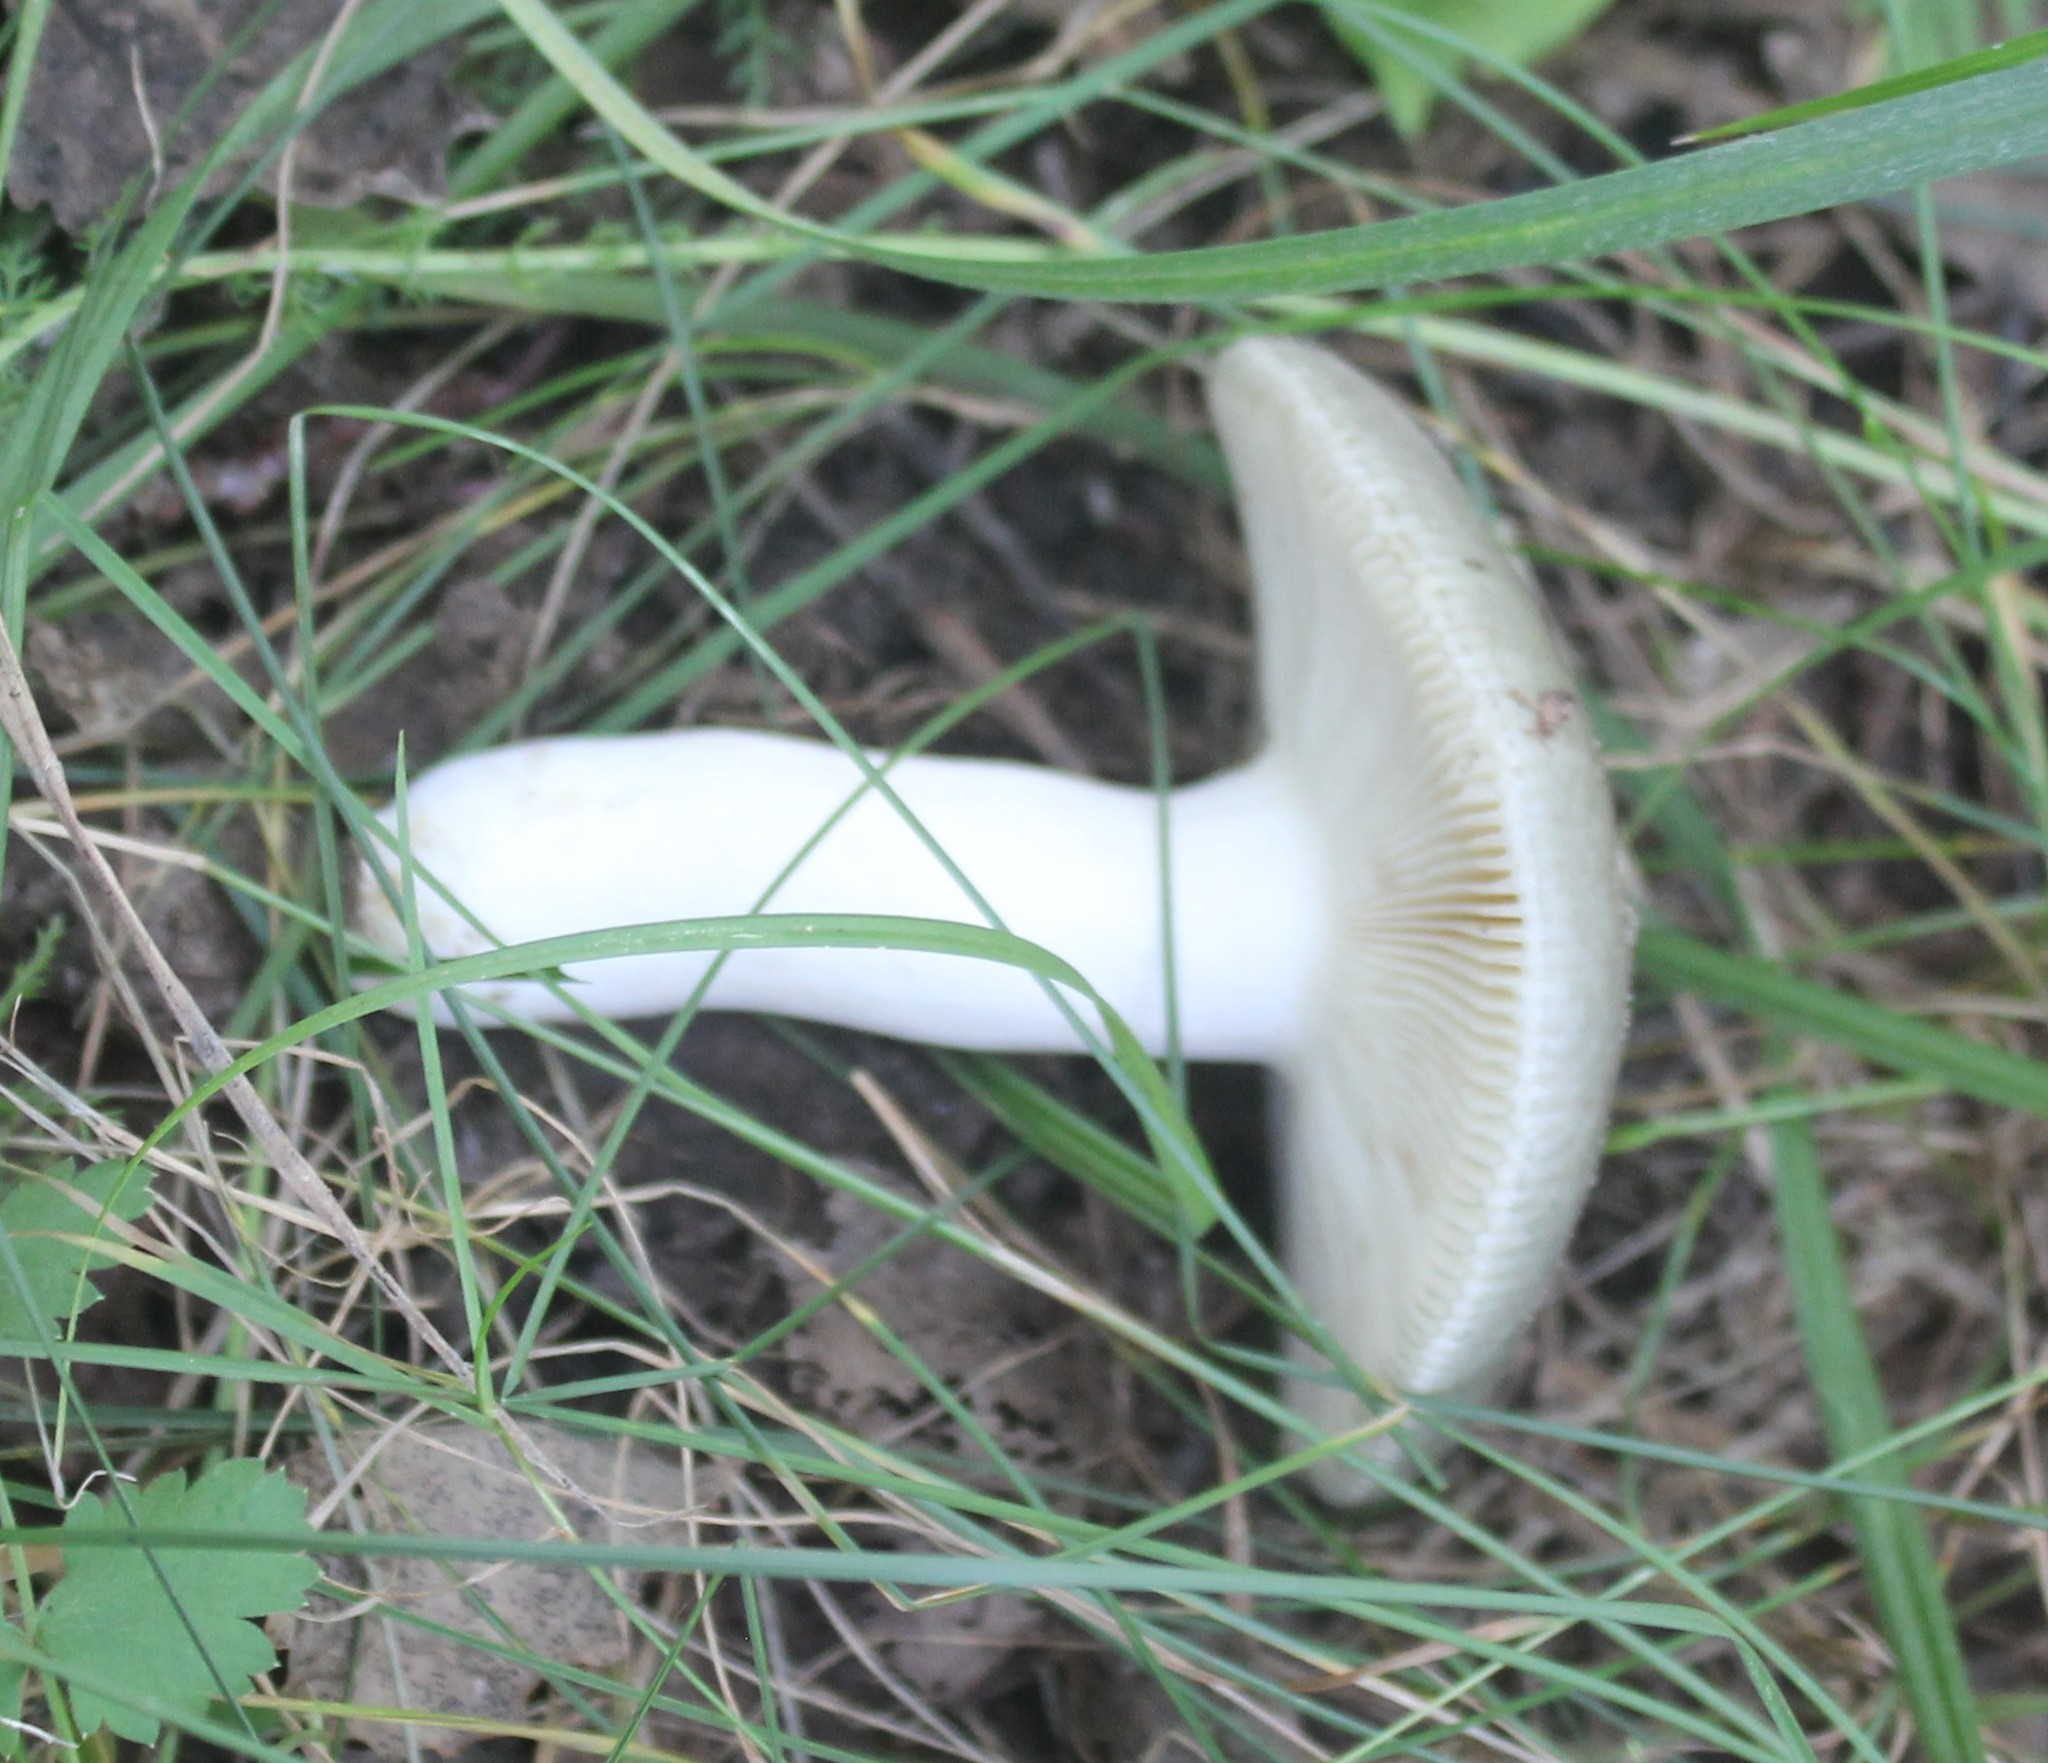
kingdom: Fungi
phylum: Basidiomycota
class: Agaricomycetes
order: Russulales
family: Russulaceae
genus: Russula
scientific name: Russula aeruginea
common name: Green brittlegill
